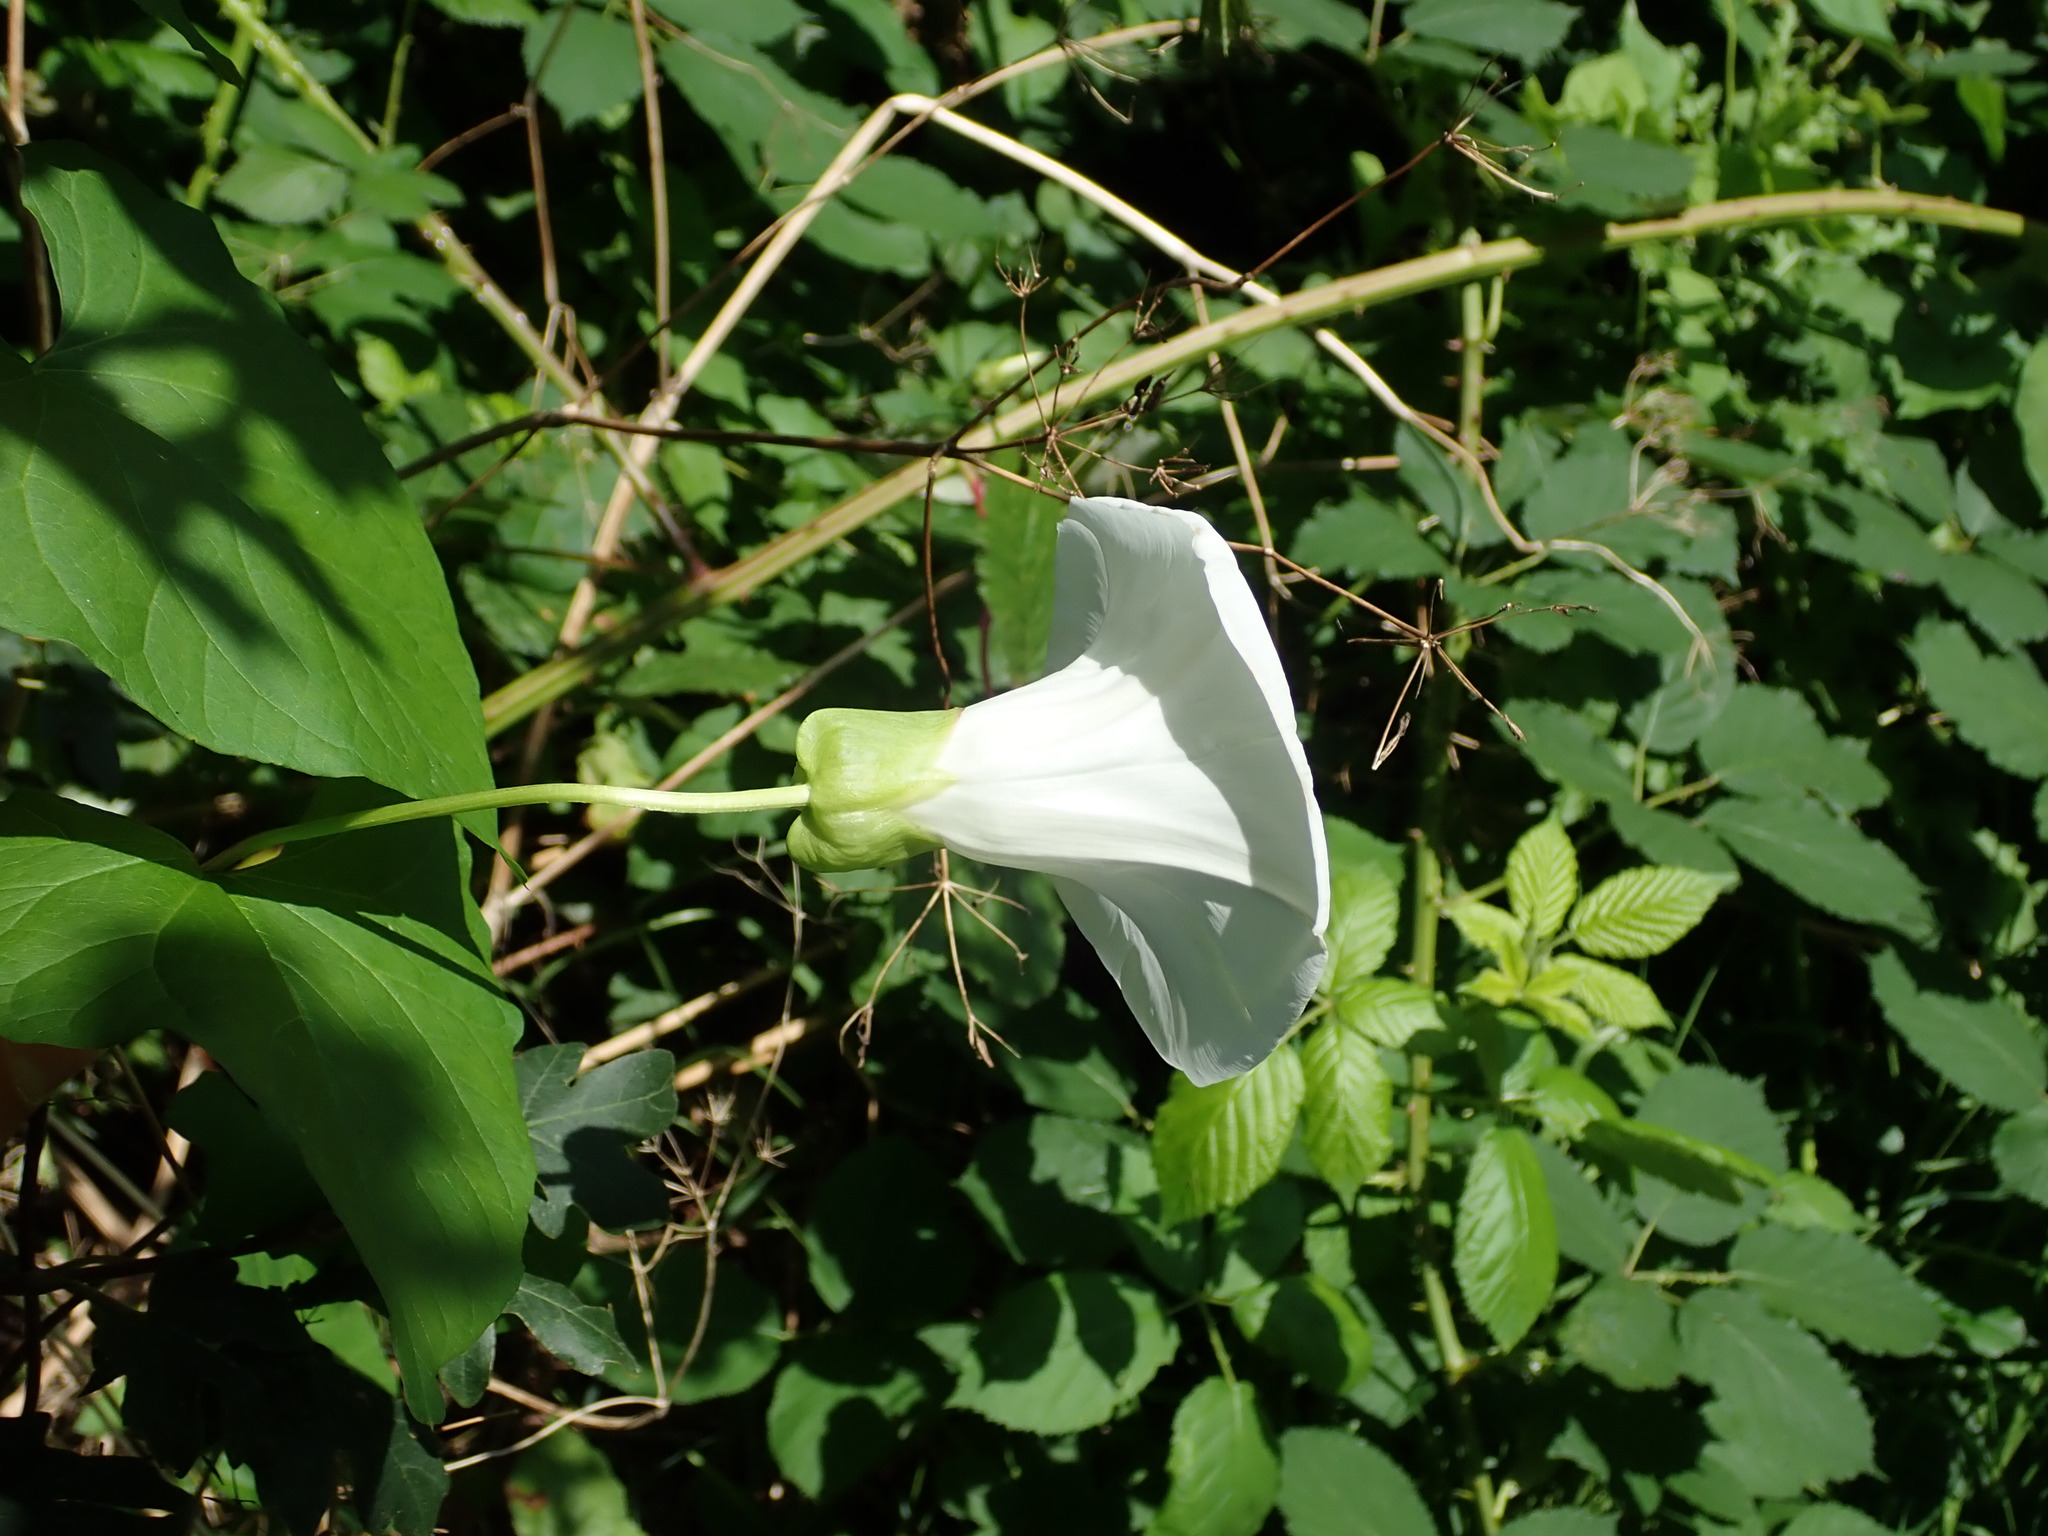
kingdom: Plantae
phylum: Tracheophyta
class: Magnoliopsida
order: Solanales
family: Convolvulaceae
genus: Calystegia
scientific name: Calystegia silvatica
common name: Large bindweed
